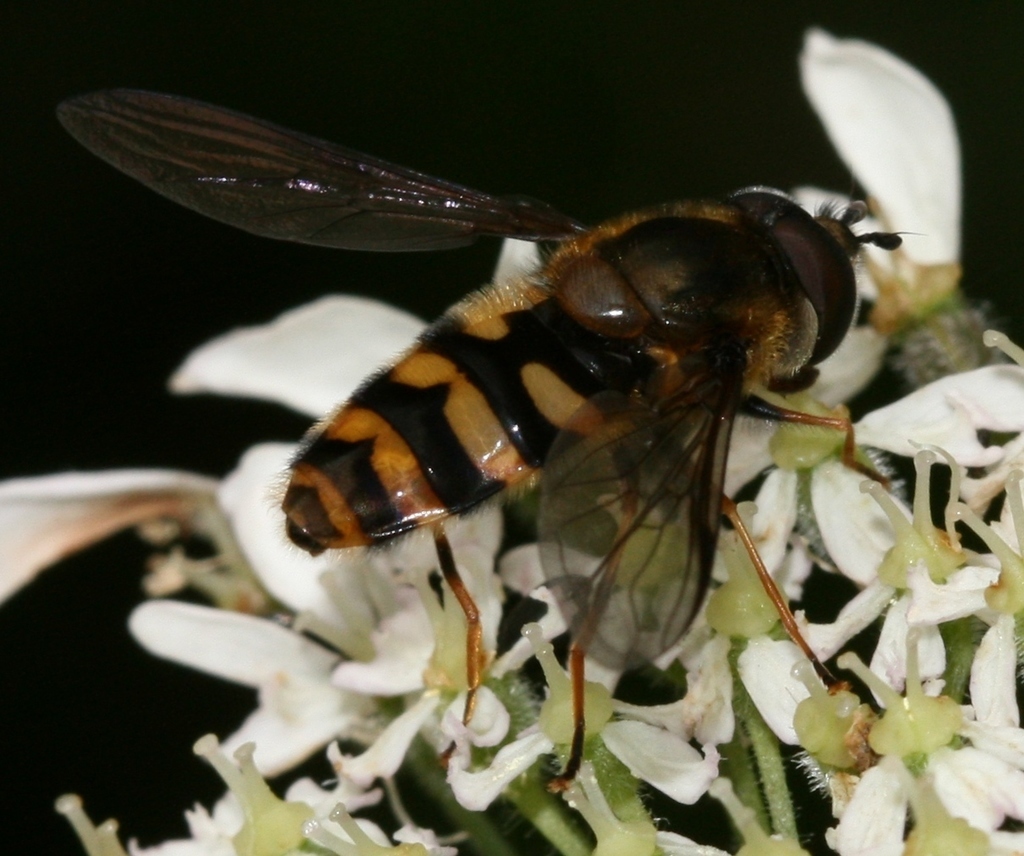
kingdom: Animalia
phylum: Arthropoda
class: Insecta
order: Diptera
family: Syrphidae
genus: Megasyrphus
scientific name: Megasyrphus erratica
